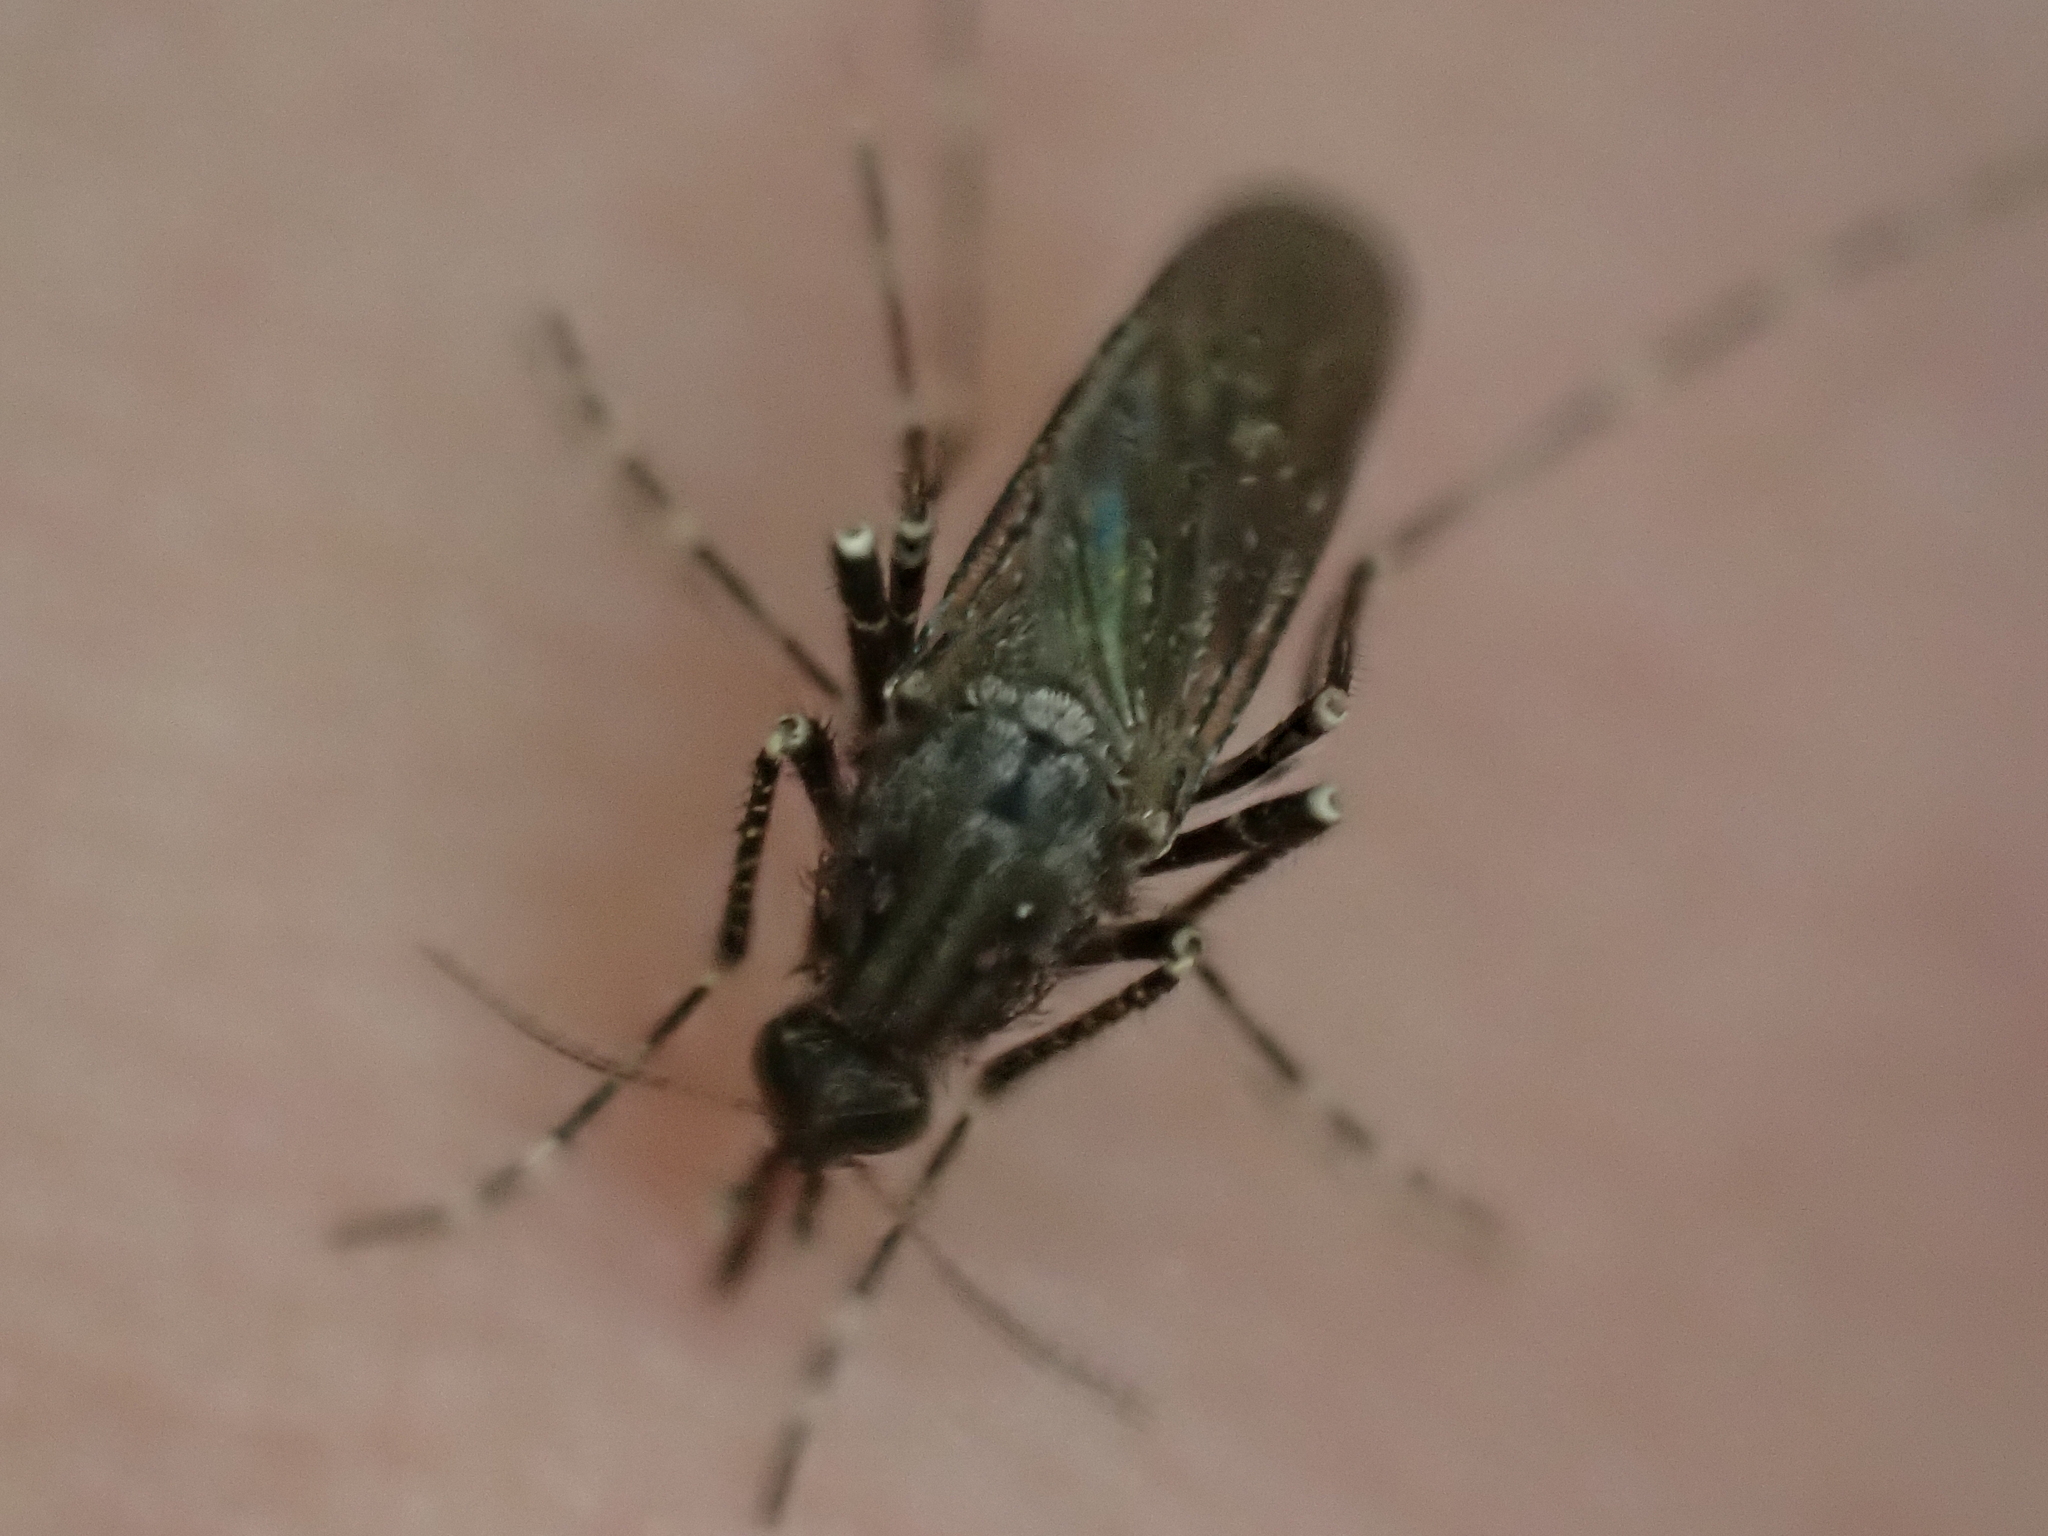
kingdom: Animalia
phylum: Arthropoda
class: Insecta
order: Diptera
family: Culicidae
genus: Psorophora
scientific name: Psorophora columbiae
